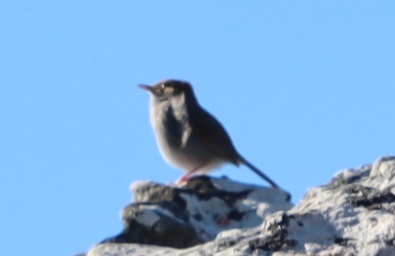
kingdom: Animalia
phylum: Chordata
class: Aves
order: Passeriformes
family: Cisticolidae
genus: Cisticola
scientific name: Cisticola fulvicapilla
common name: Neddicky
